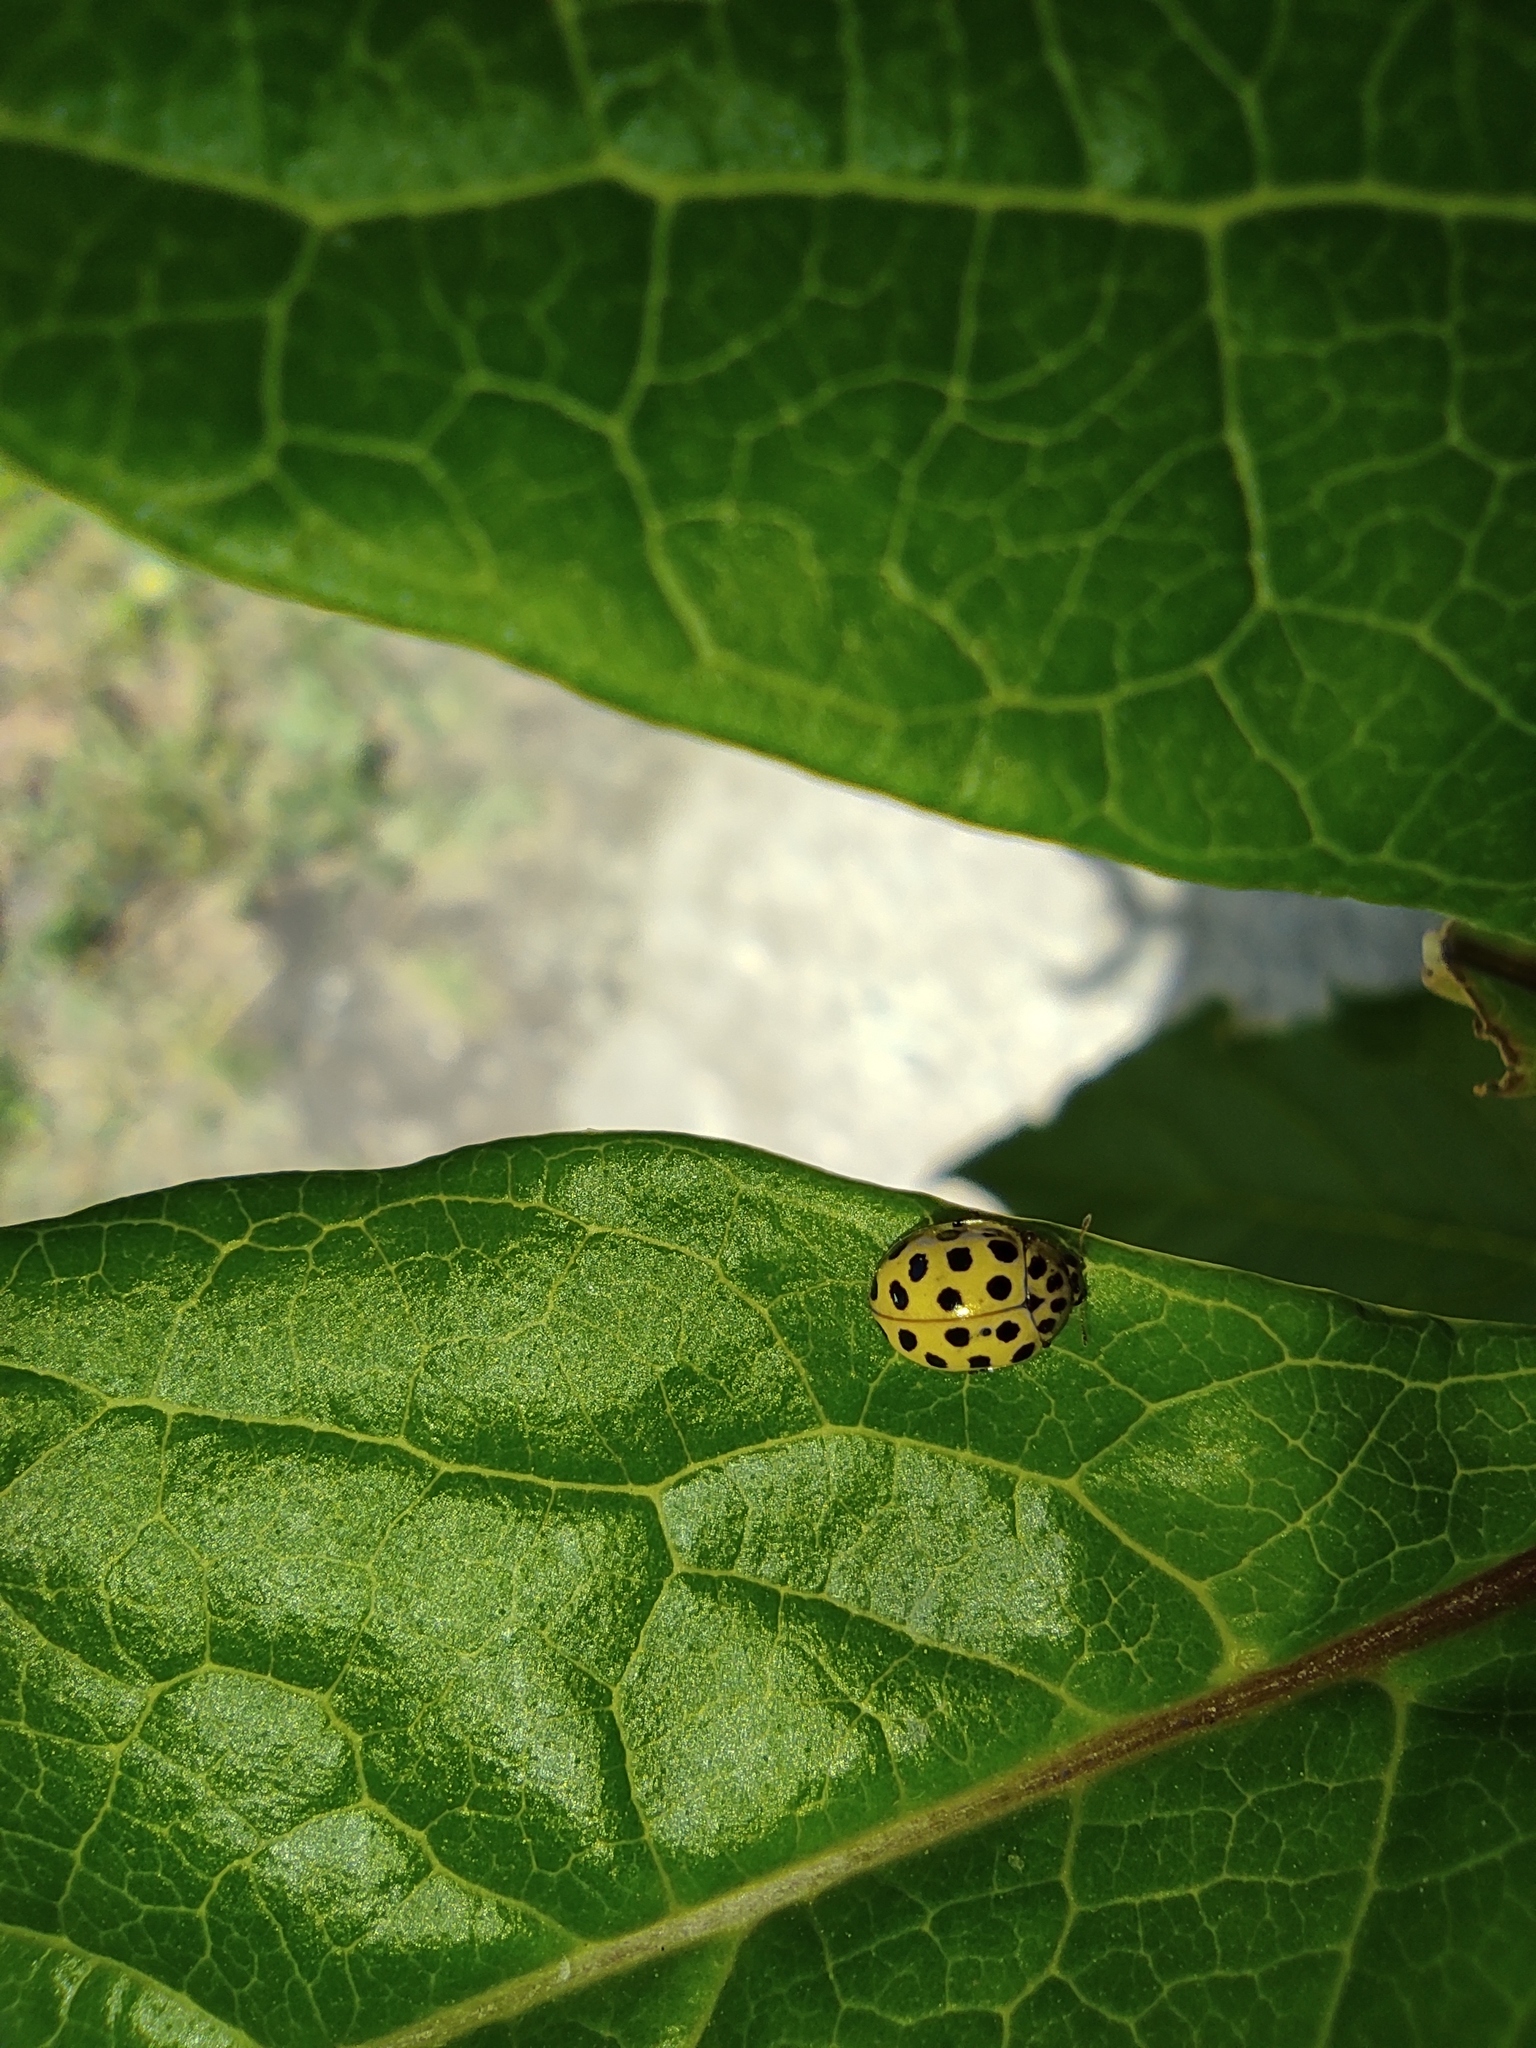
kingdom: Animalia
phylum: Arthropoda
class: Insecta
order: Coleoptera
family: Coccinellidae
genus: Psyllobora
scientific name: Psyllobora vigintiduopunctata
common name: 22-spot ladybird
